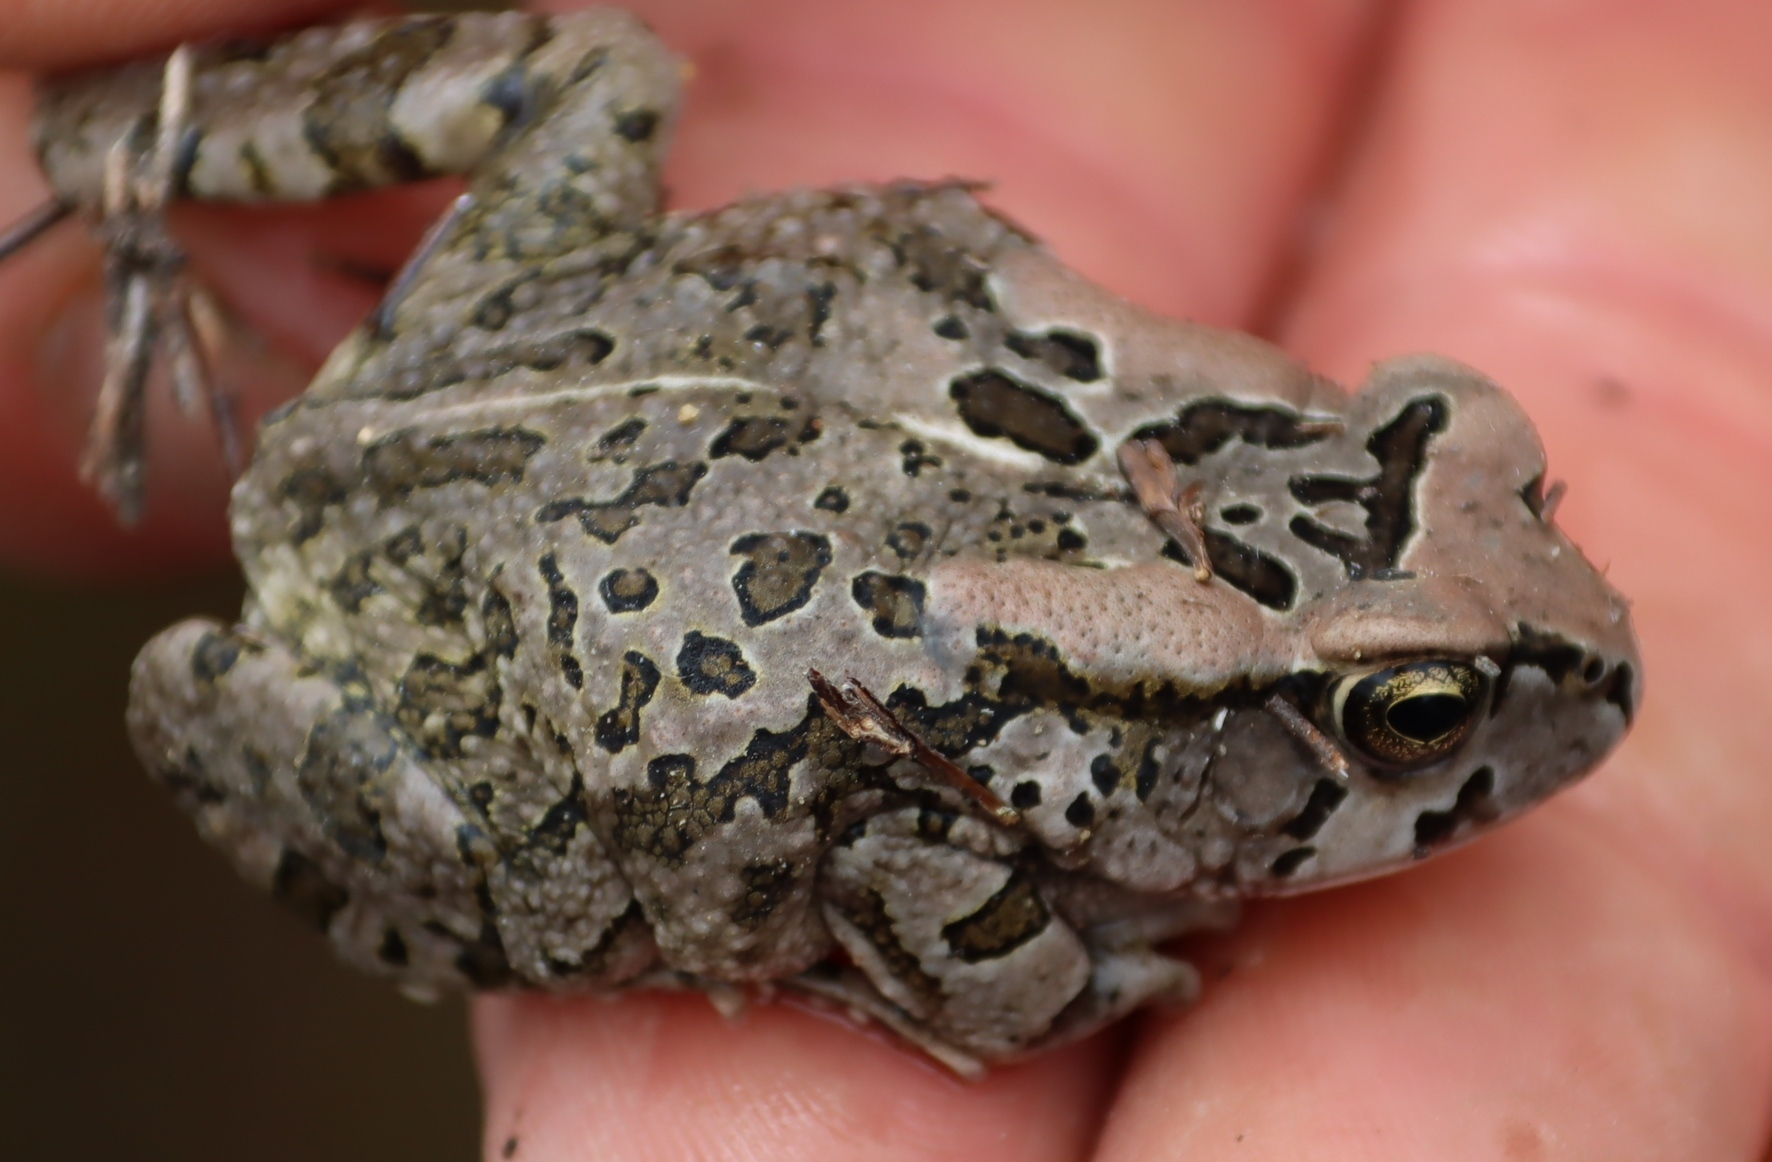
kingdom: Animalia
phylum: Chordata
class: Amphibia
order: Anura
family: Bufonidae
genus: Sclerophrys
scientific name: Sclerophrys capensis
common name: Ranger’s toad
